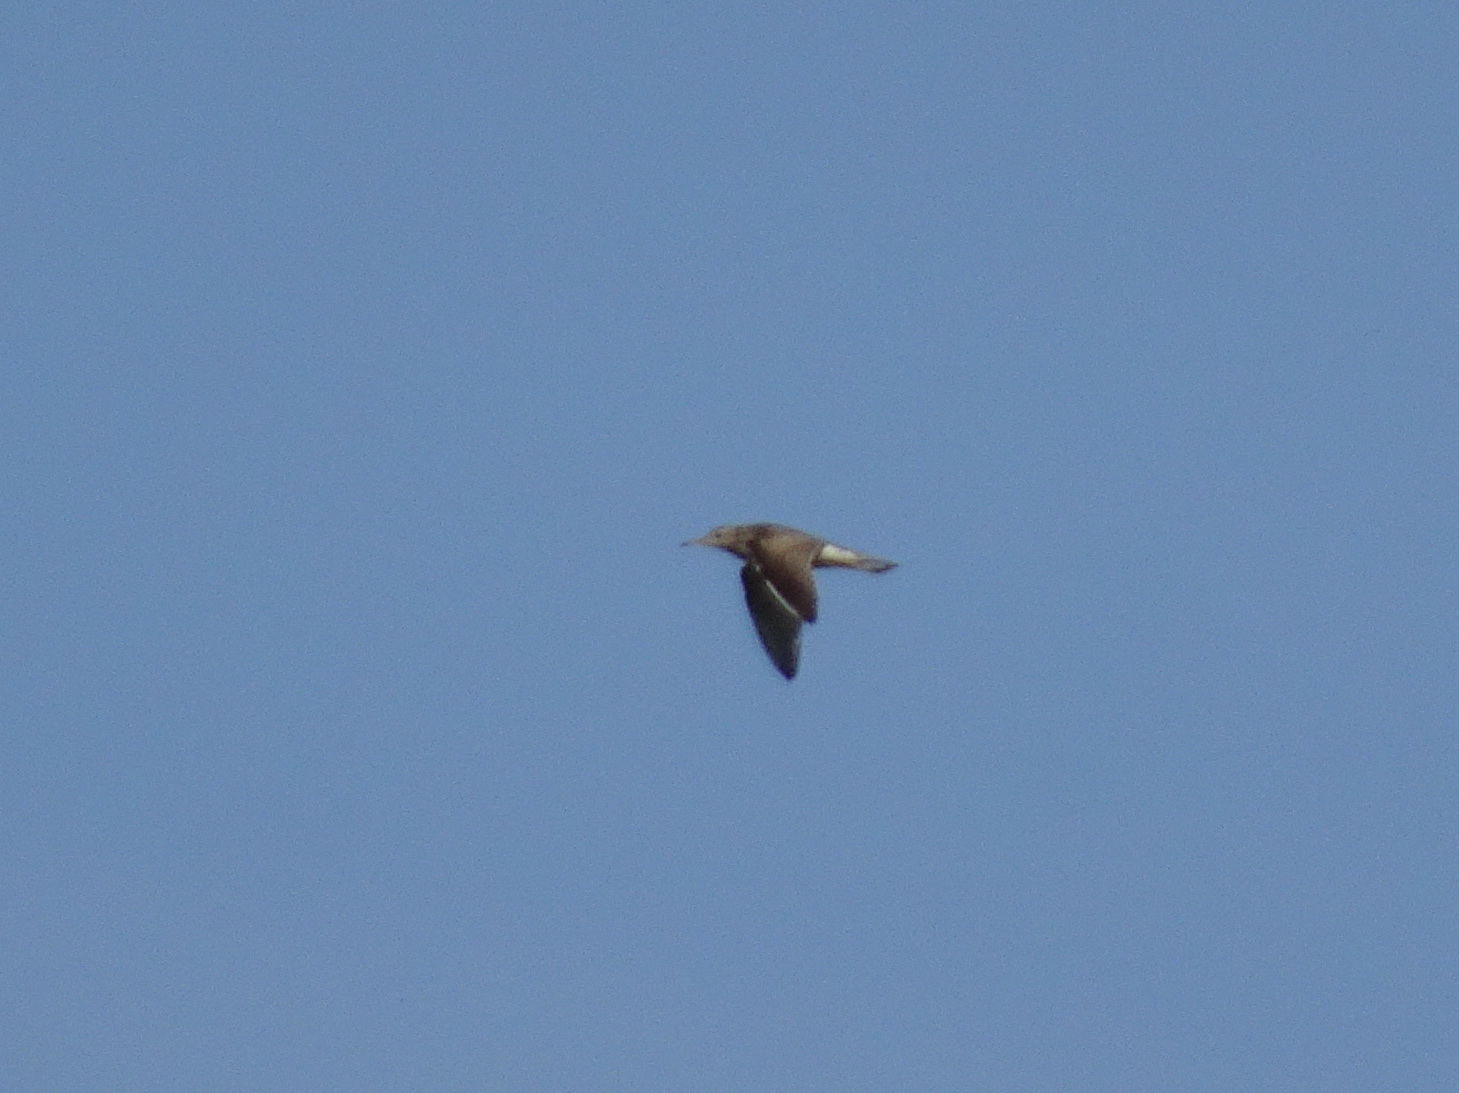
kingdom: Animalia
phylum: Chordata
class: Aves
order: Charadriiformes
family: Scolopacidae
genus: Bartramia
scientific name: Bartramia longicauda
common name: Upland sandpiper
